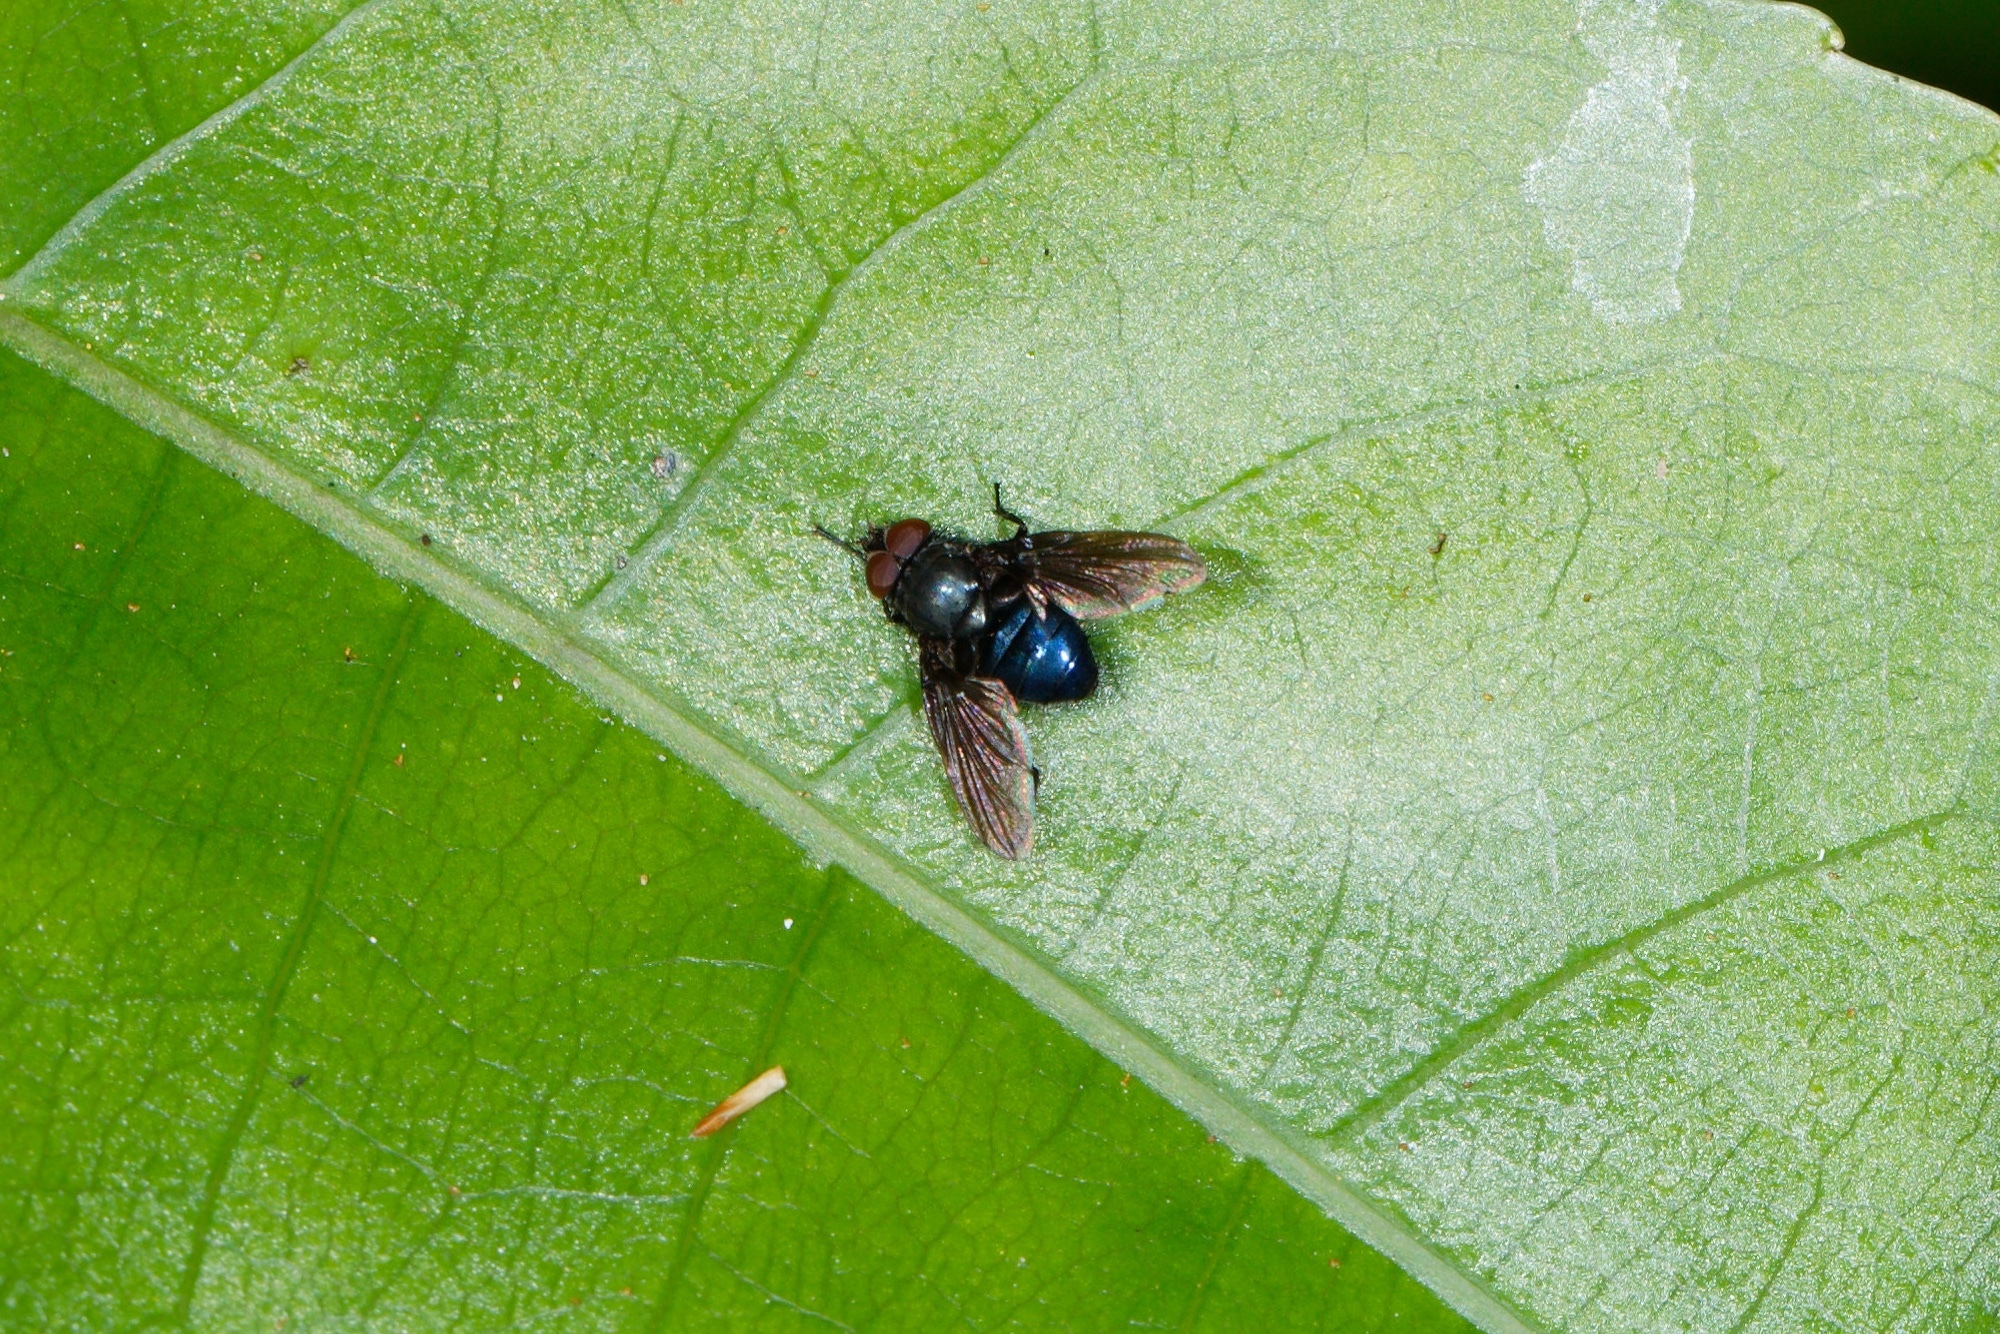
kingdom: Animalia
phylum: Arthropoda
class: Insecta
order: Diptera
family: Muscidae
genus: Calliphoroides
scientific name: Calliphoroides antennatis
